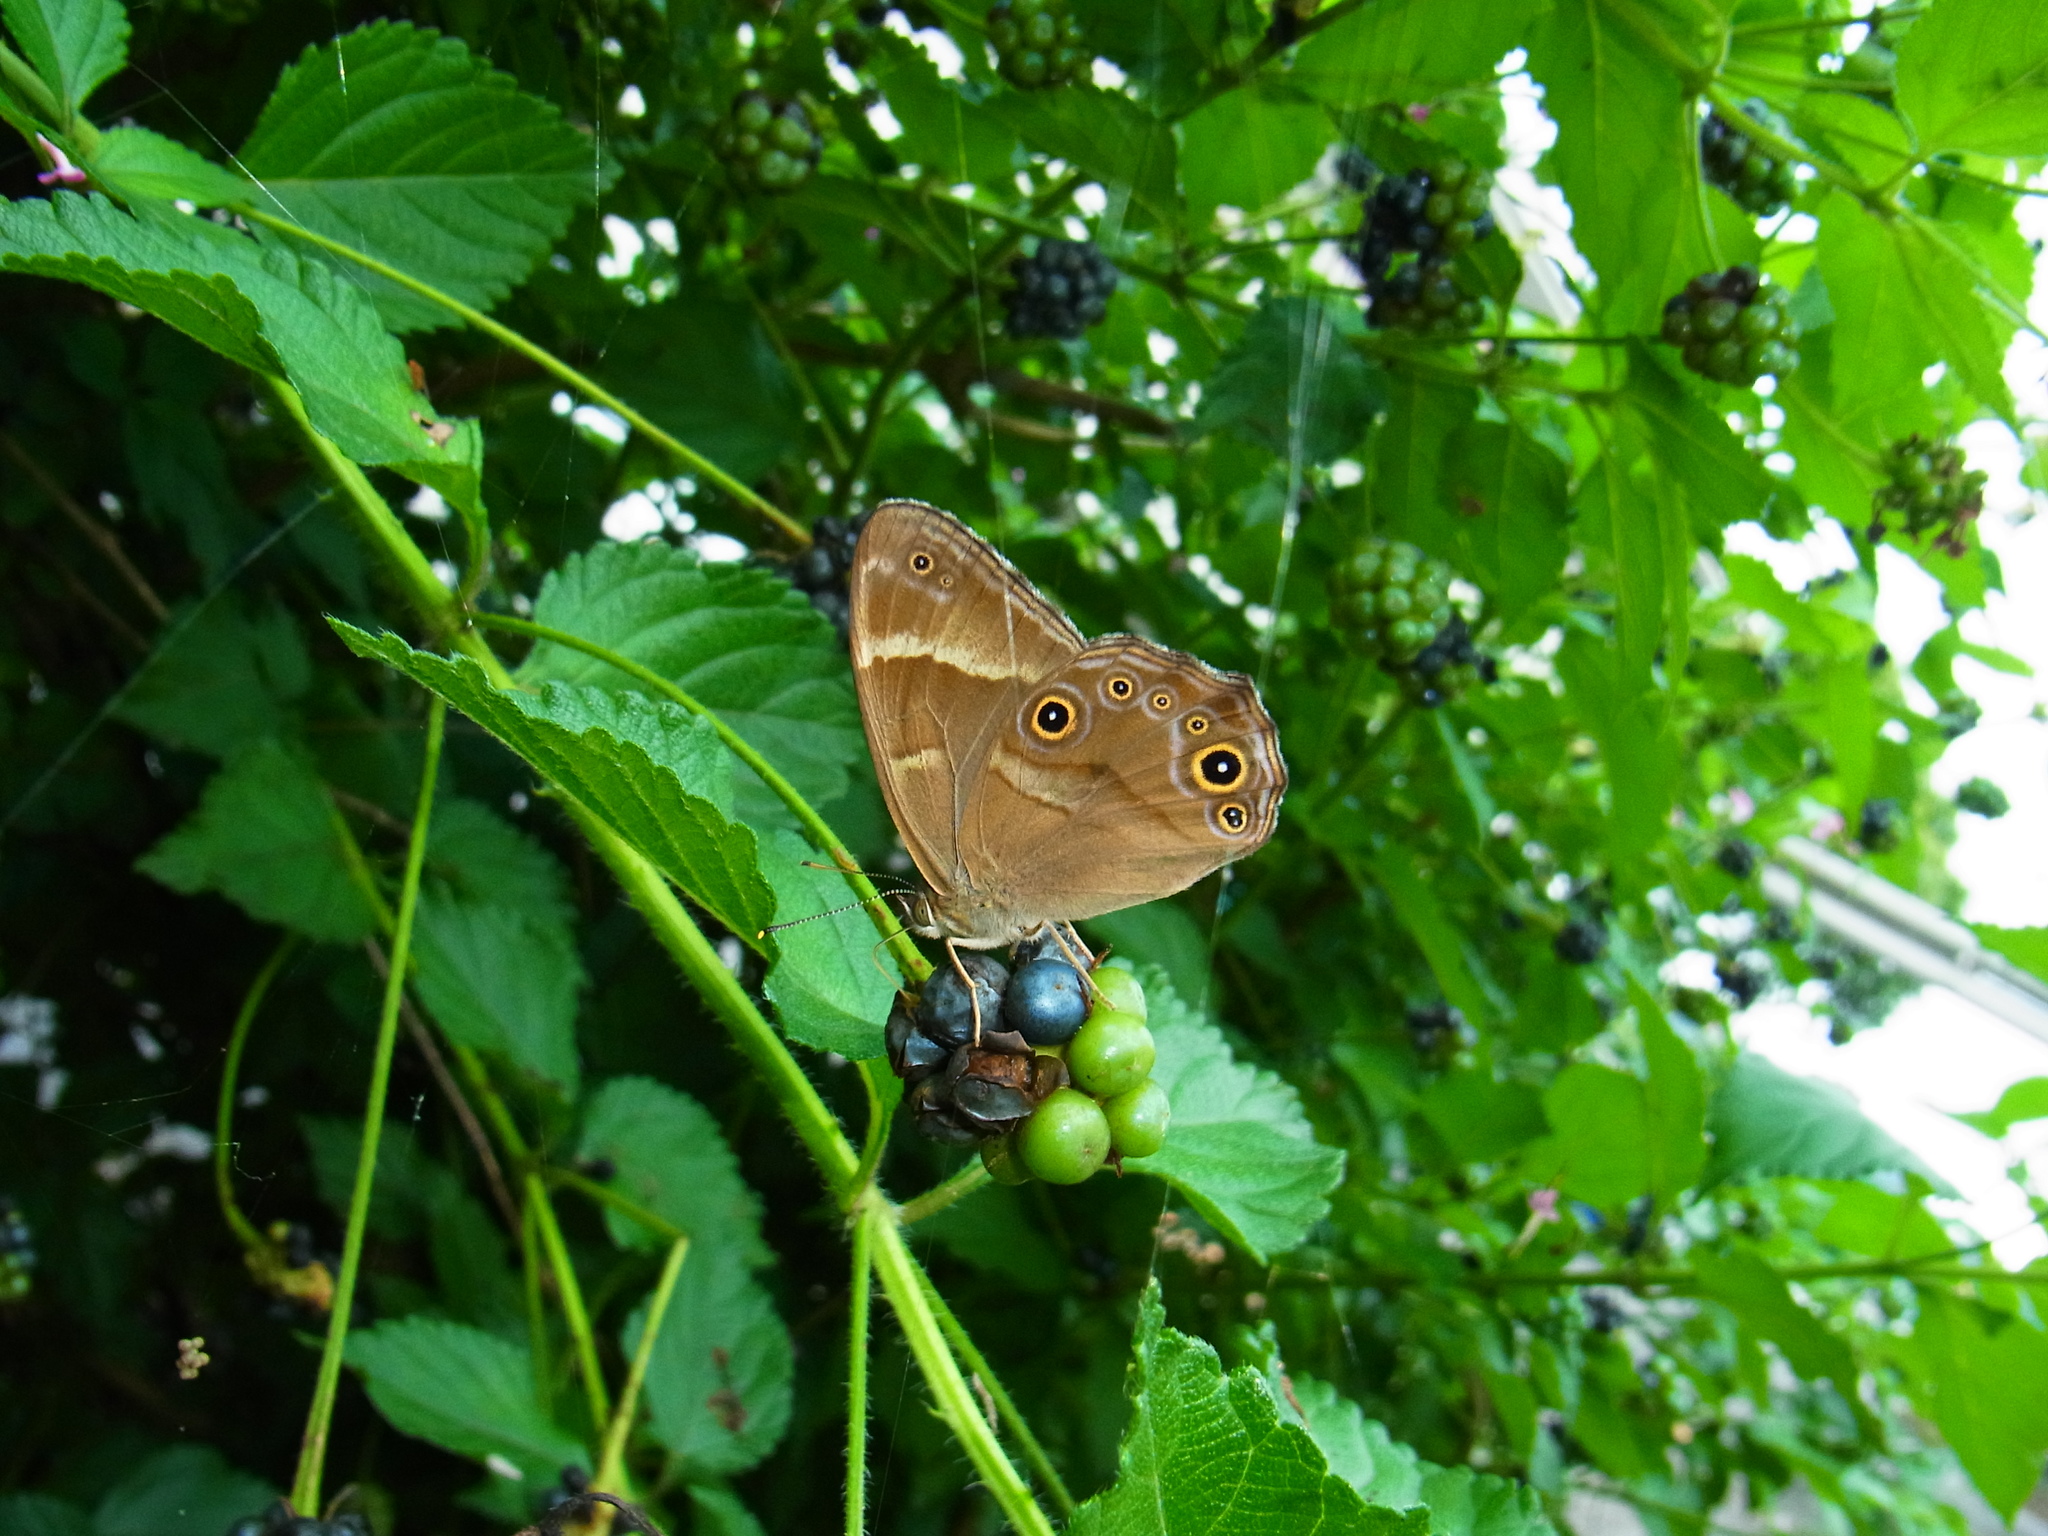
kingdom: Animalia
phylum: Arthropoda
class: Insecta
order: Lepidoptera
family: Nymphalidae
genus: Lethe
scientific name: Lethe sicelis
